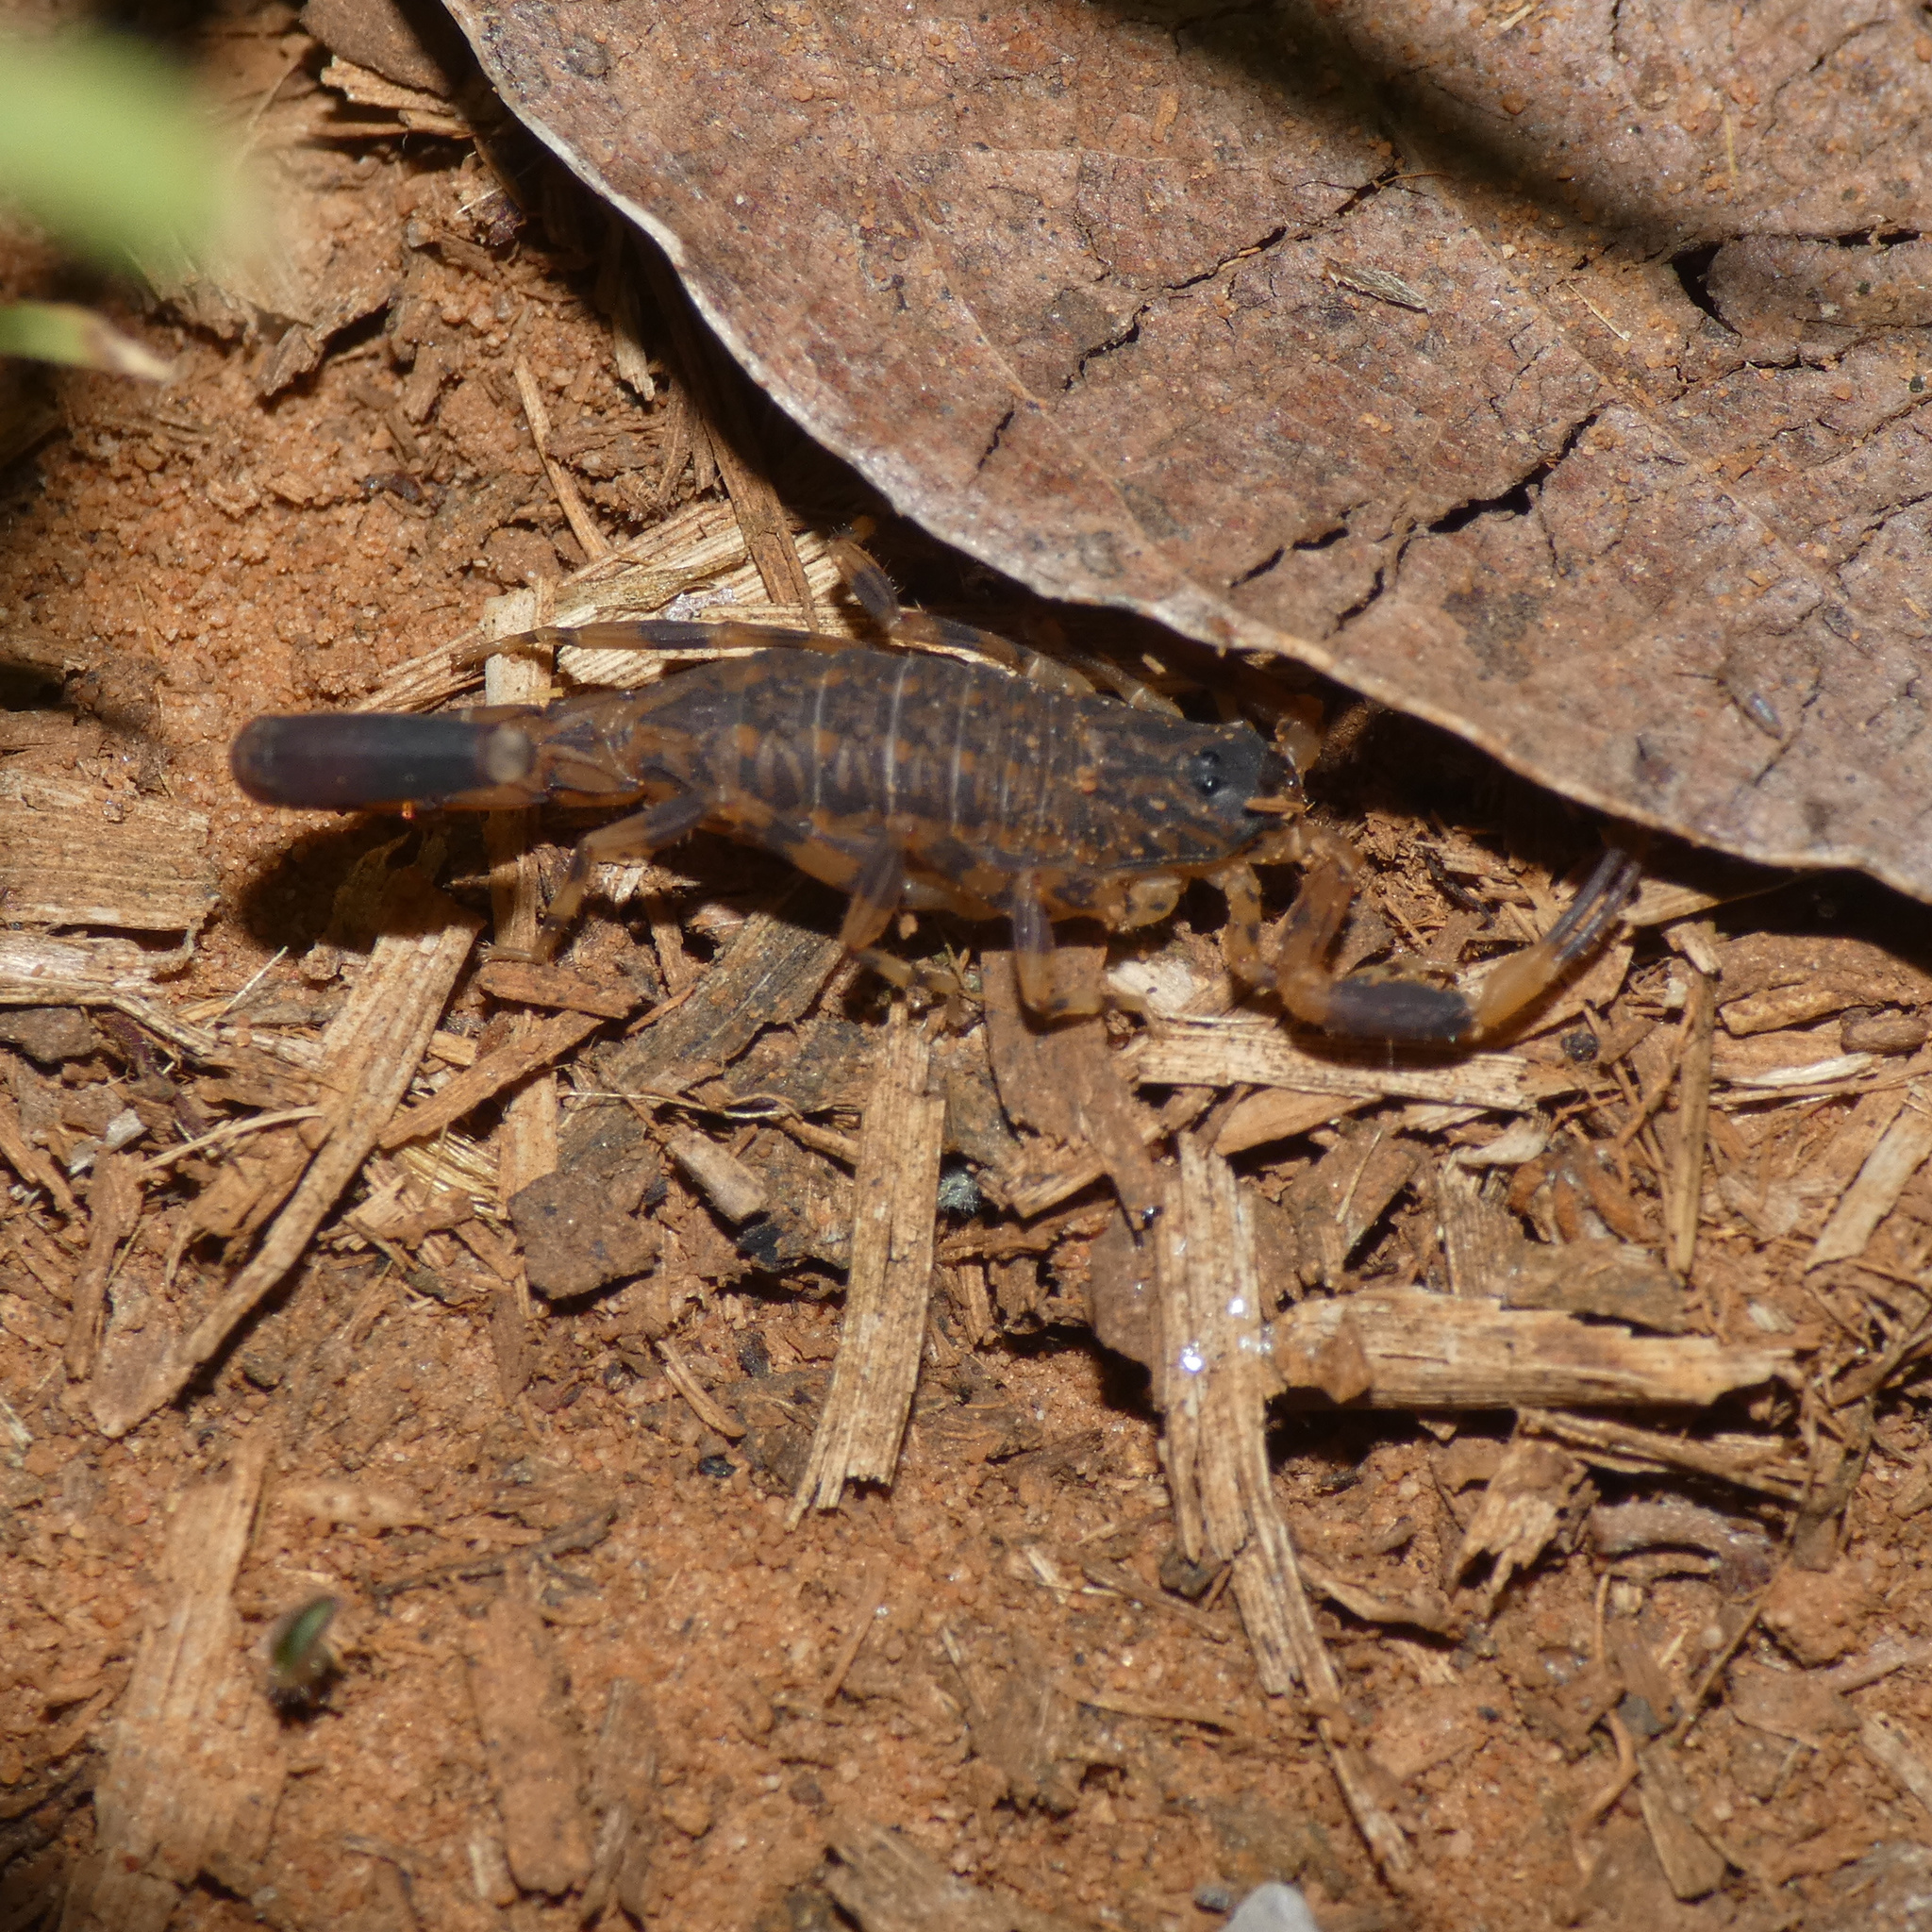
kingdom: Animalia
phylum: Arthropoda
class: Arachnida
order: Scorpiones
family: Buthidae
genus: Afrolychas
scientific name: Afrolychas burdoi
